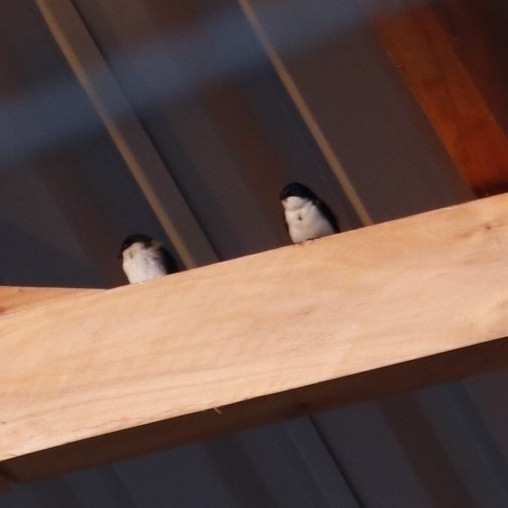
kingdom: Animalia
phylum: Chordata
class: Aves
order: Passeriformes
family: Hirundinidae
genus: Notiochelidon
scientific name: Notiochelidon cyanoleuca
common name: Blue-and-white swallow
